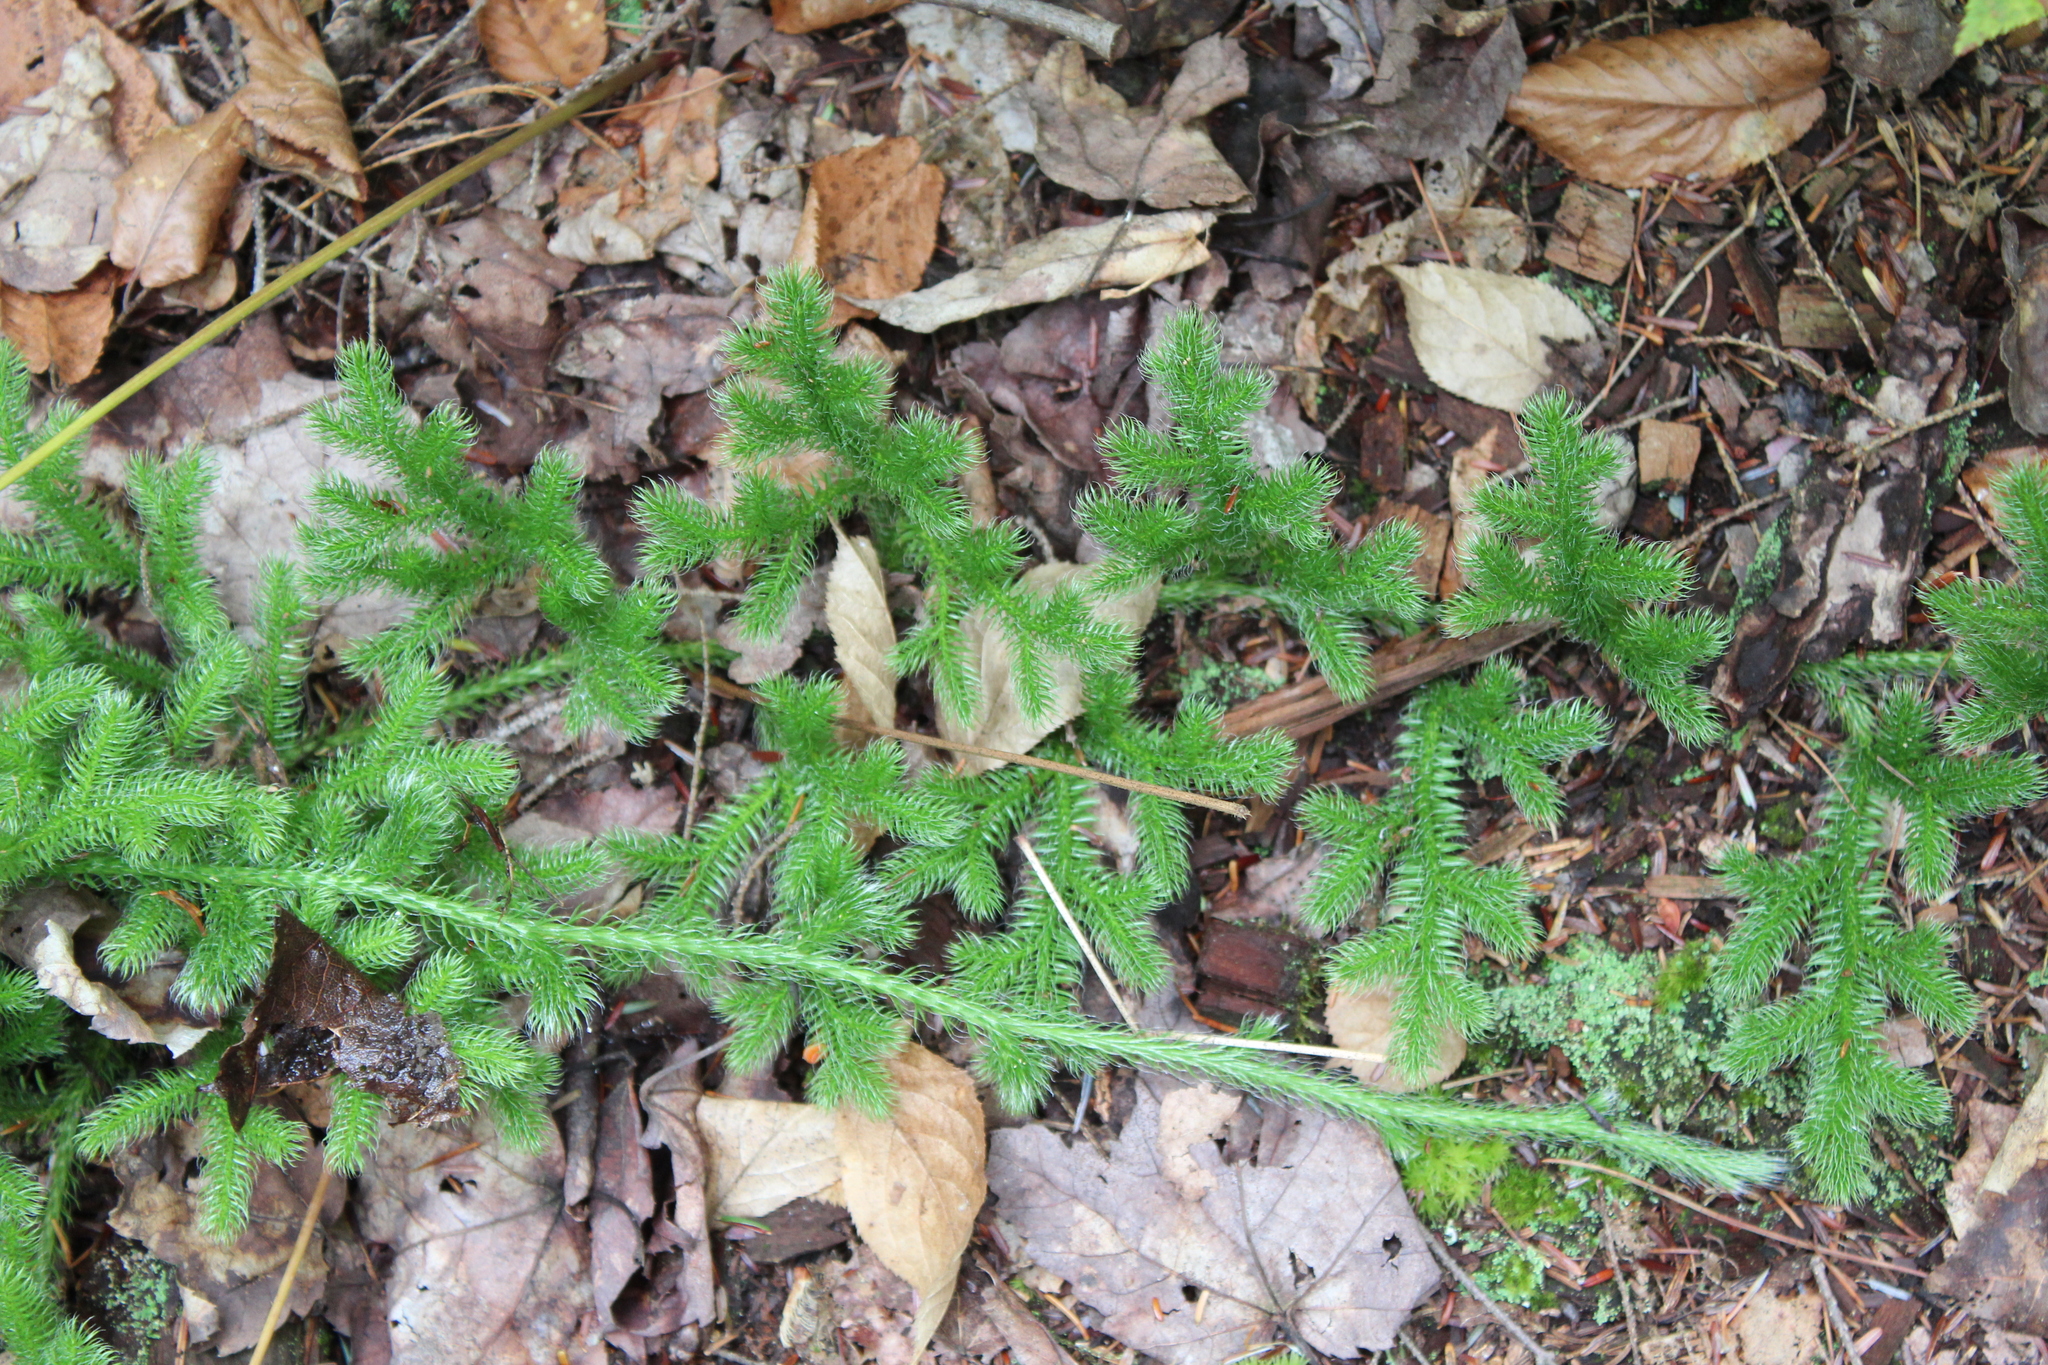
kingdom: Plantae
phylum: Tracheophyta
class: Lycopodiopsida
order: Lycopodiales
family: Lycopodiaceae
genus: Lycopodium
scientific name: Lycopodium clavatum
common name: Stag's-horn clubmoss
